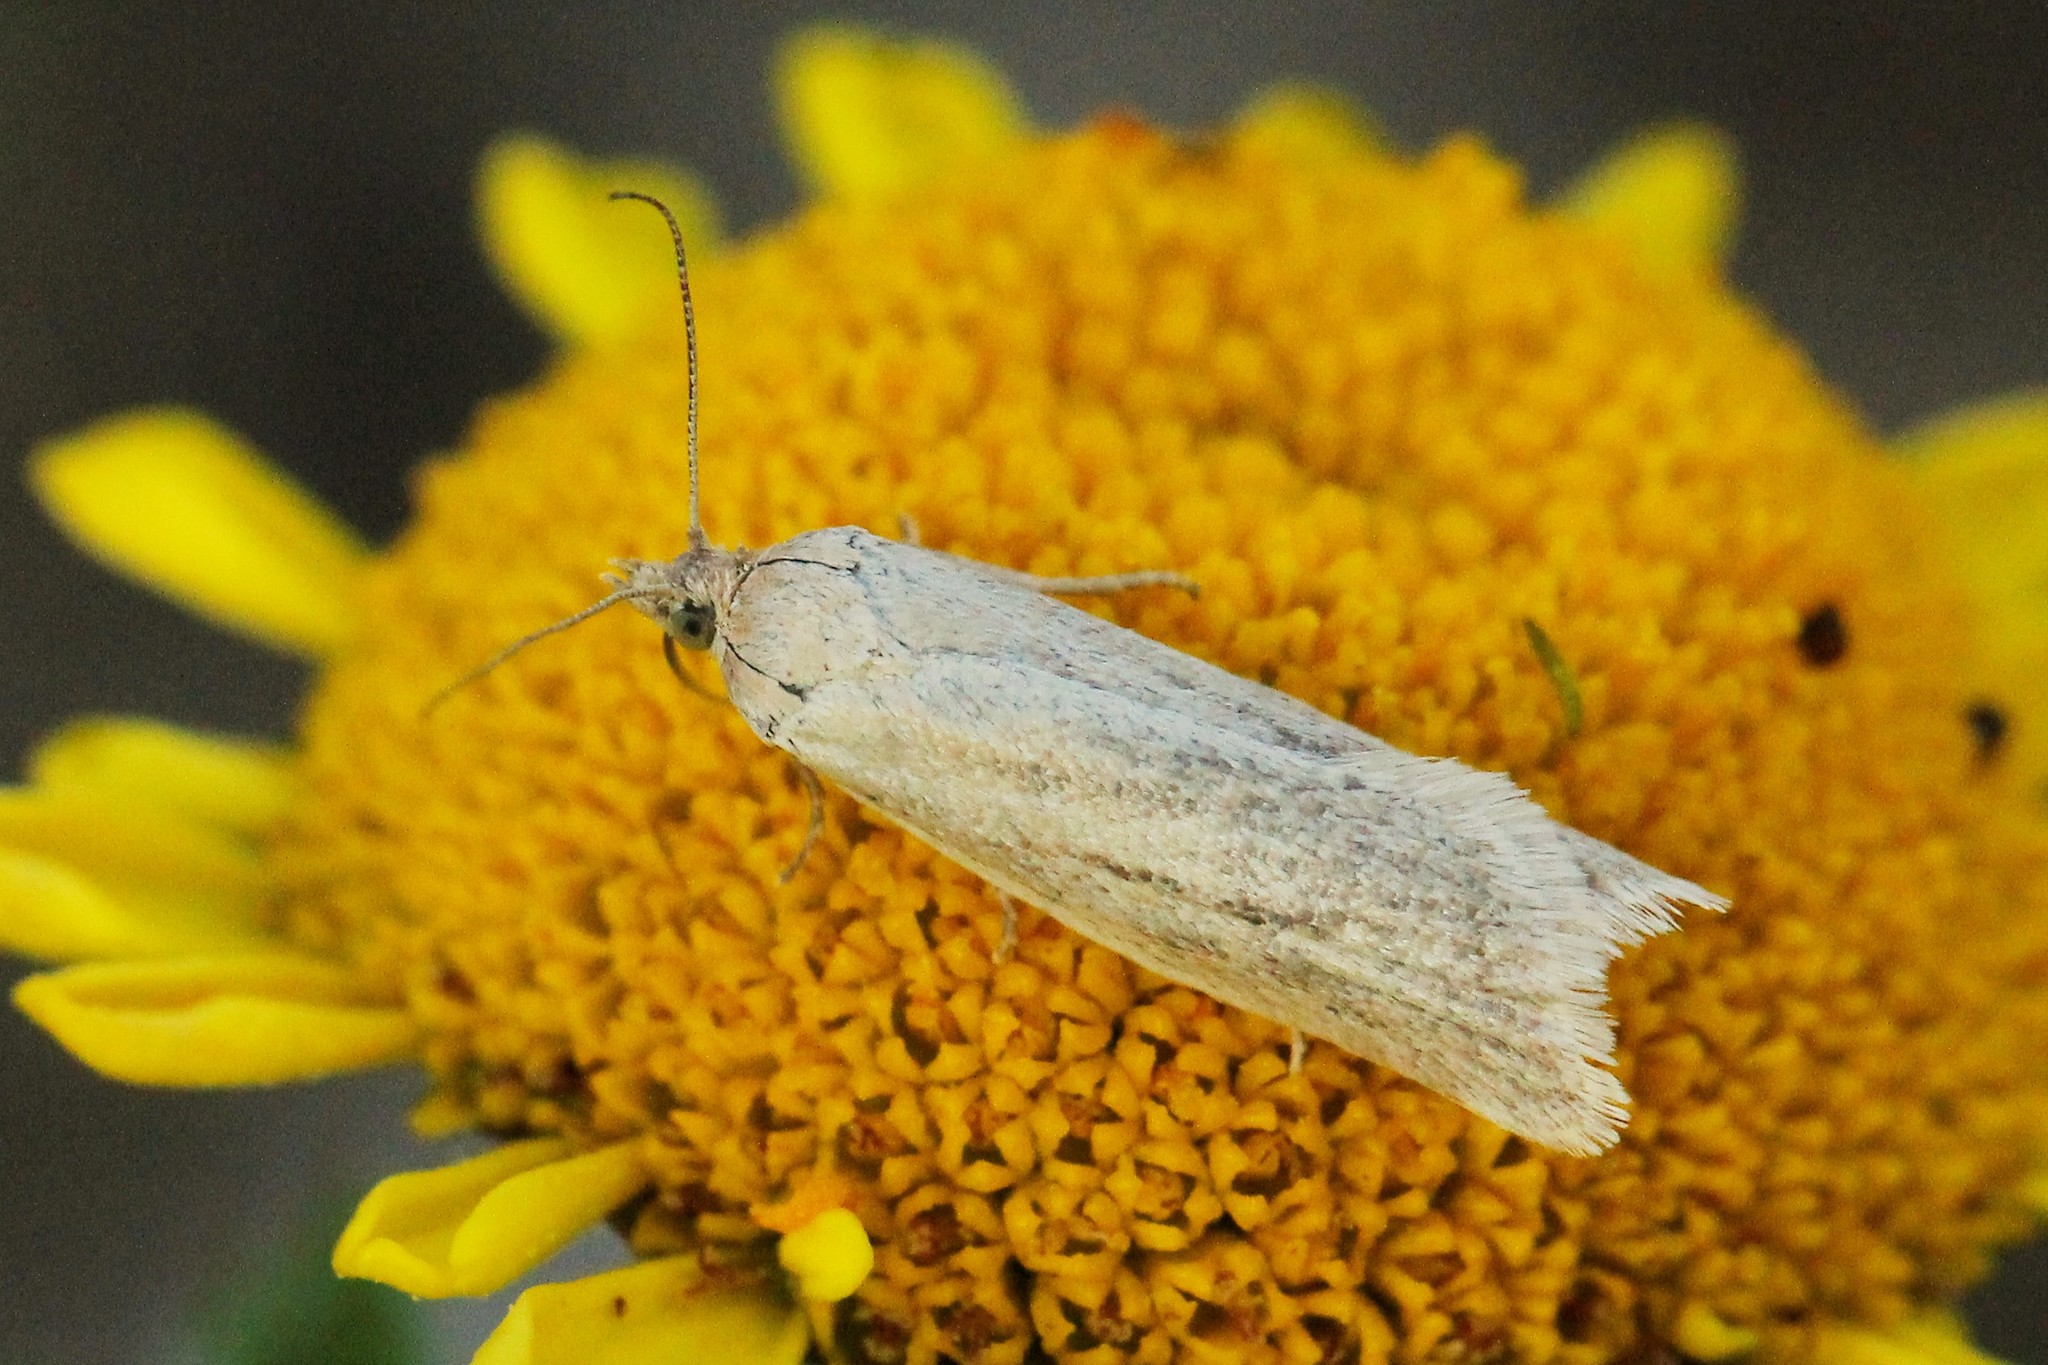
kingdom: Animalia
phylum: Arthropoda
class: Insecta
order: Lepidoptera
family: Tortricidae
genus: Eana
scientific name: Eana osseana
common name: Dotted shade
